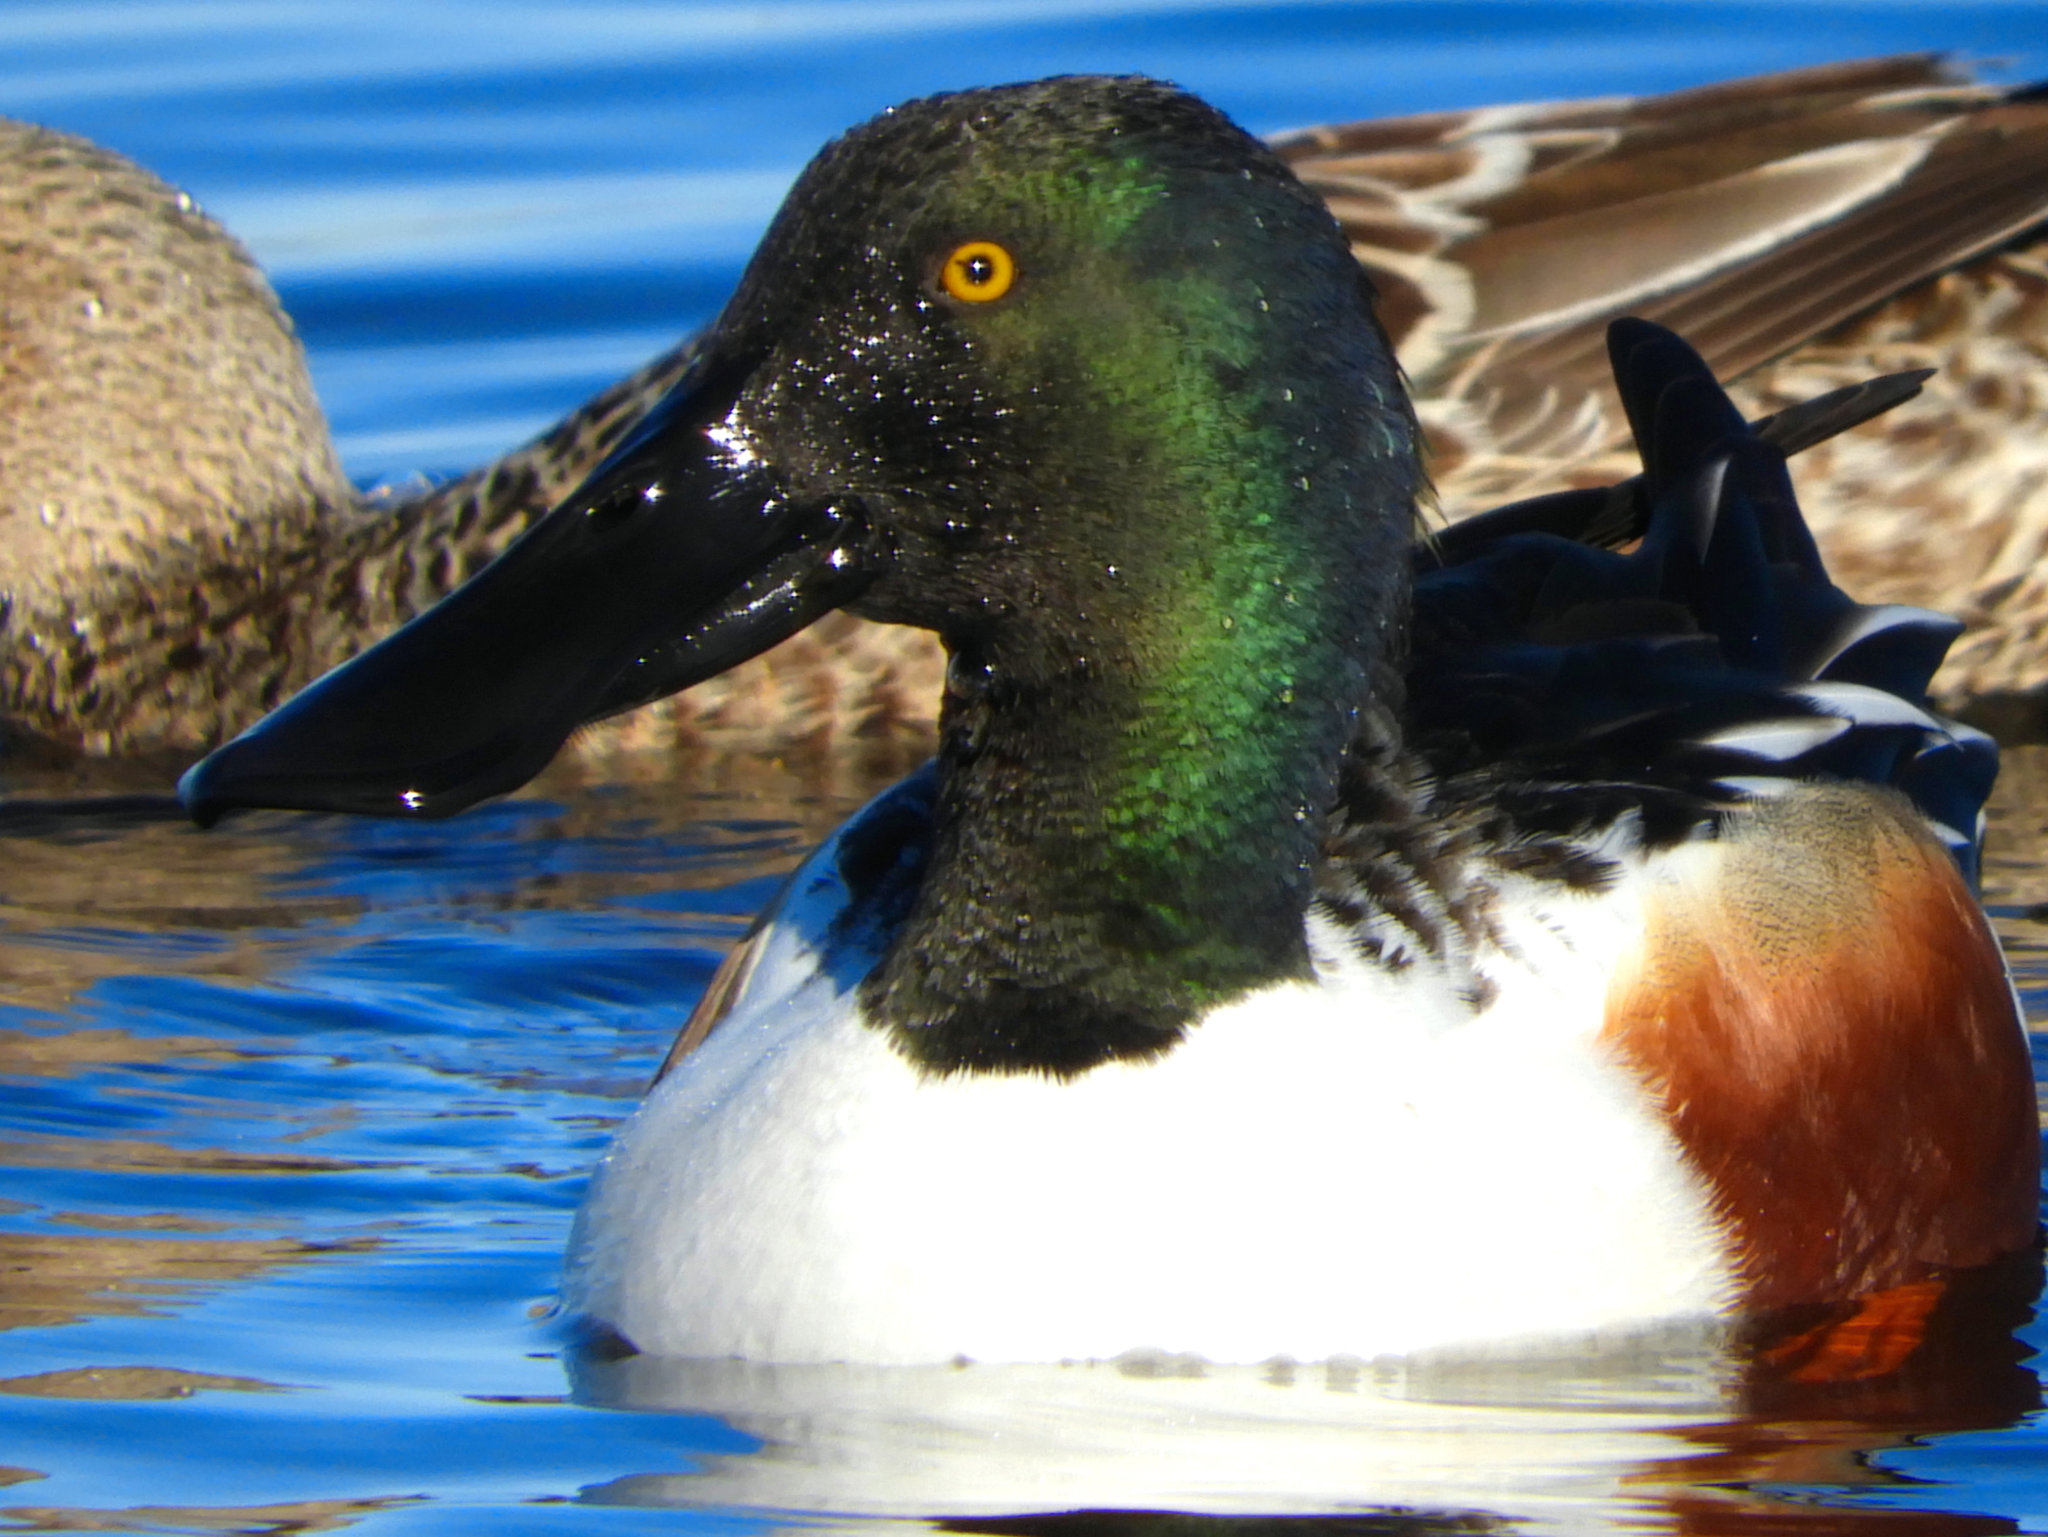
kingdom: Animalia
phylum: Chordata
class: Aves
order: Anseriformes
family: Anatidae
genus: Spatula
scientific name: Spatula clypeata
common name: Northern shoveler
